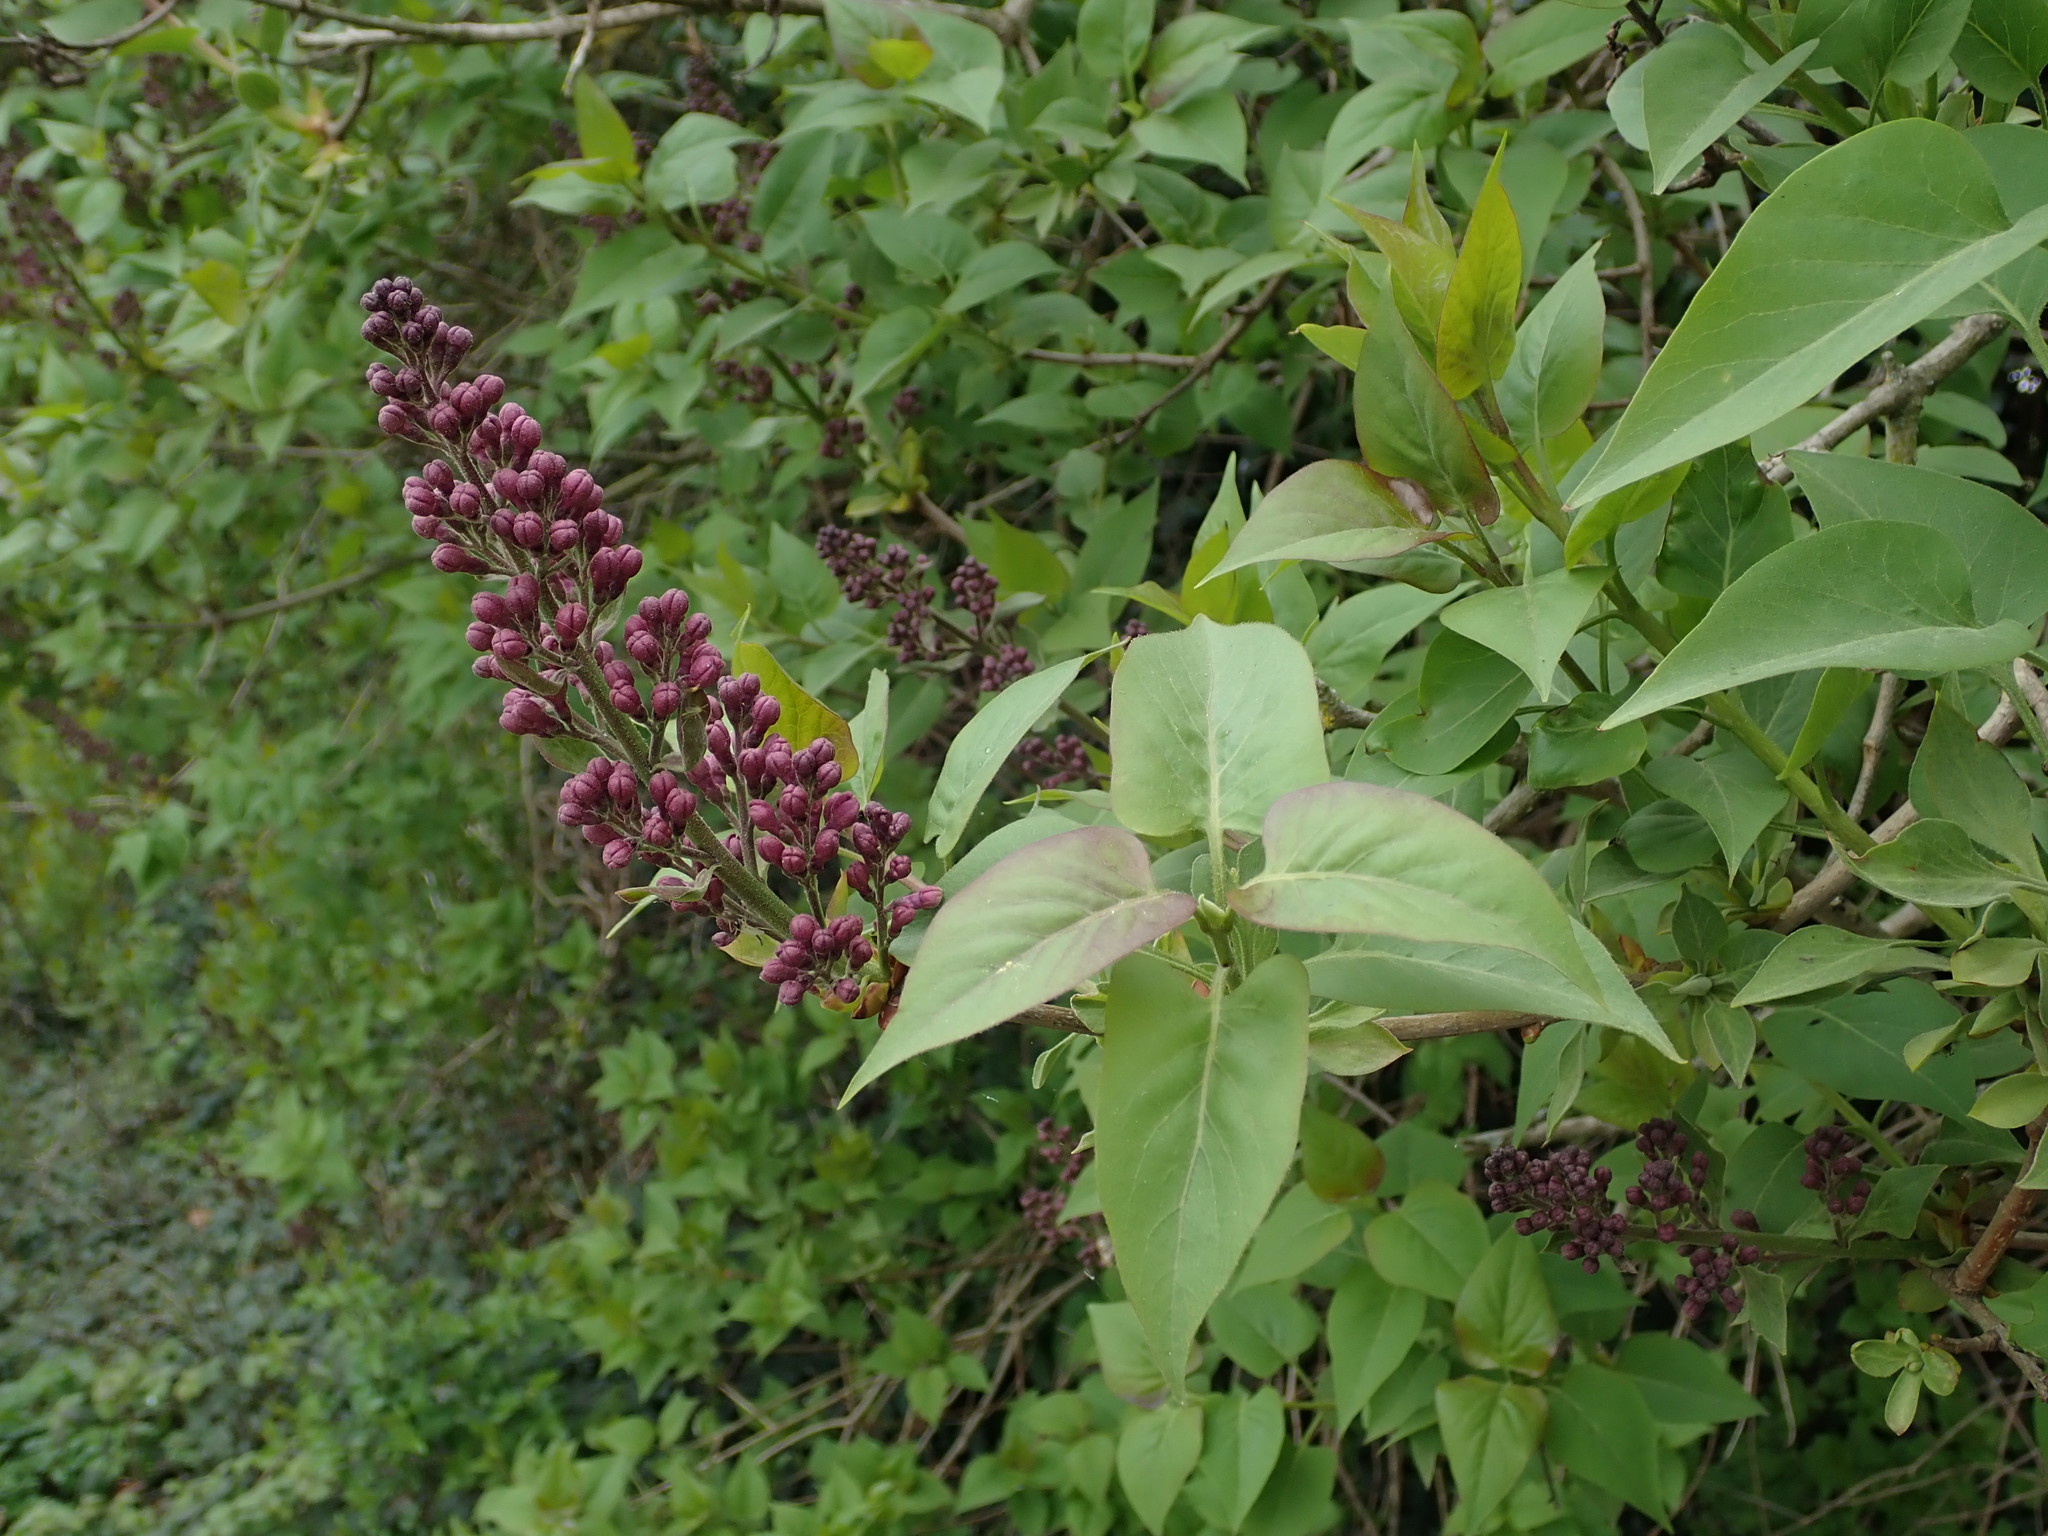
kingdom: Plantae
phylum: Tracheophyta
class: Magnoliopsida
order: Lamiales
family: Oleaceae
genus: Syringa
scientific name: Syringa vulgaris
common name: Common lilac
